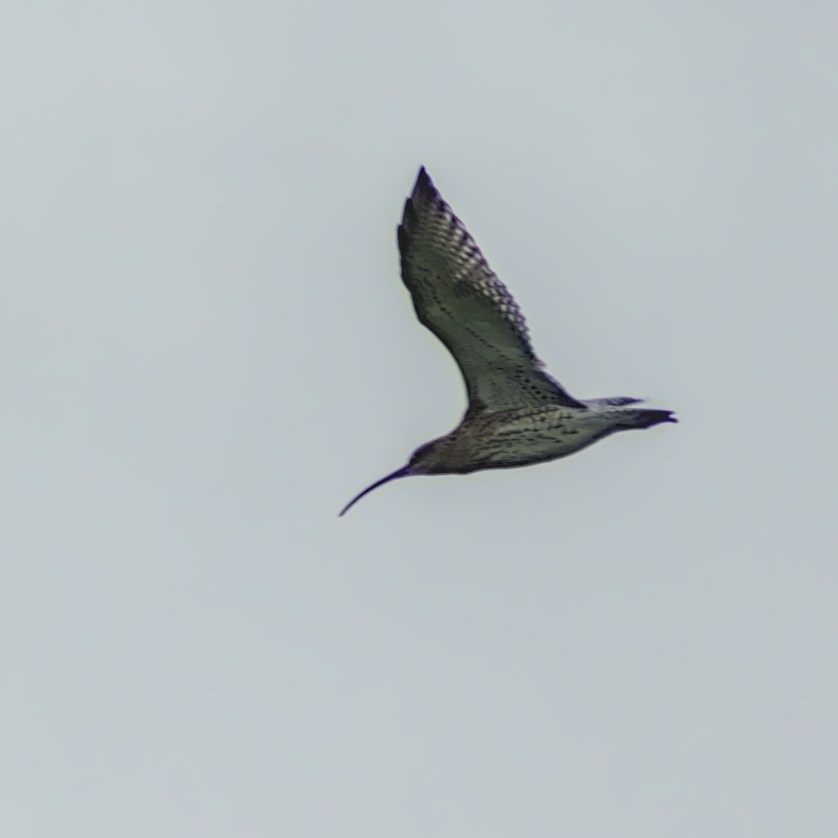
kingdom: Animalia
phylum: Chordata
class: Aves
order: Charadriiformes
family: Scolopacidae
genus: Numenius
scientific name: Numenius arquata
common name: Eurasian curlew
